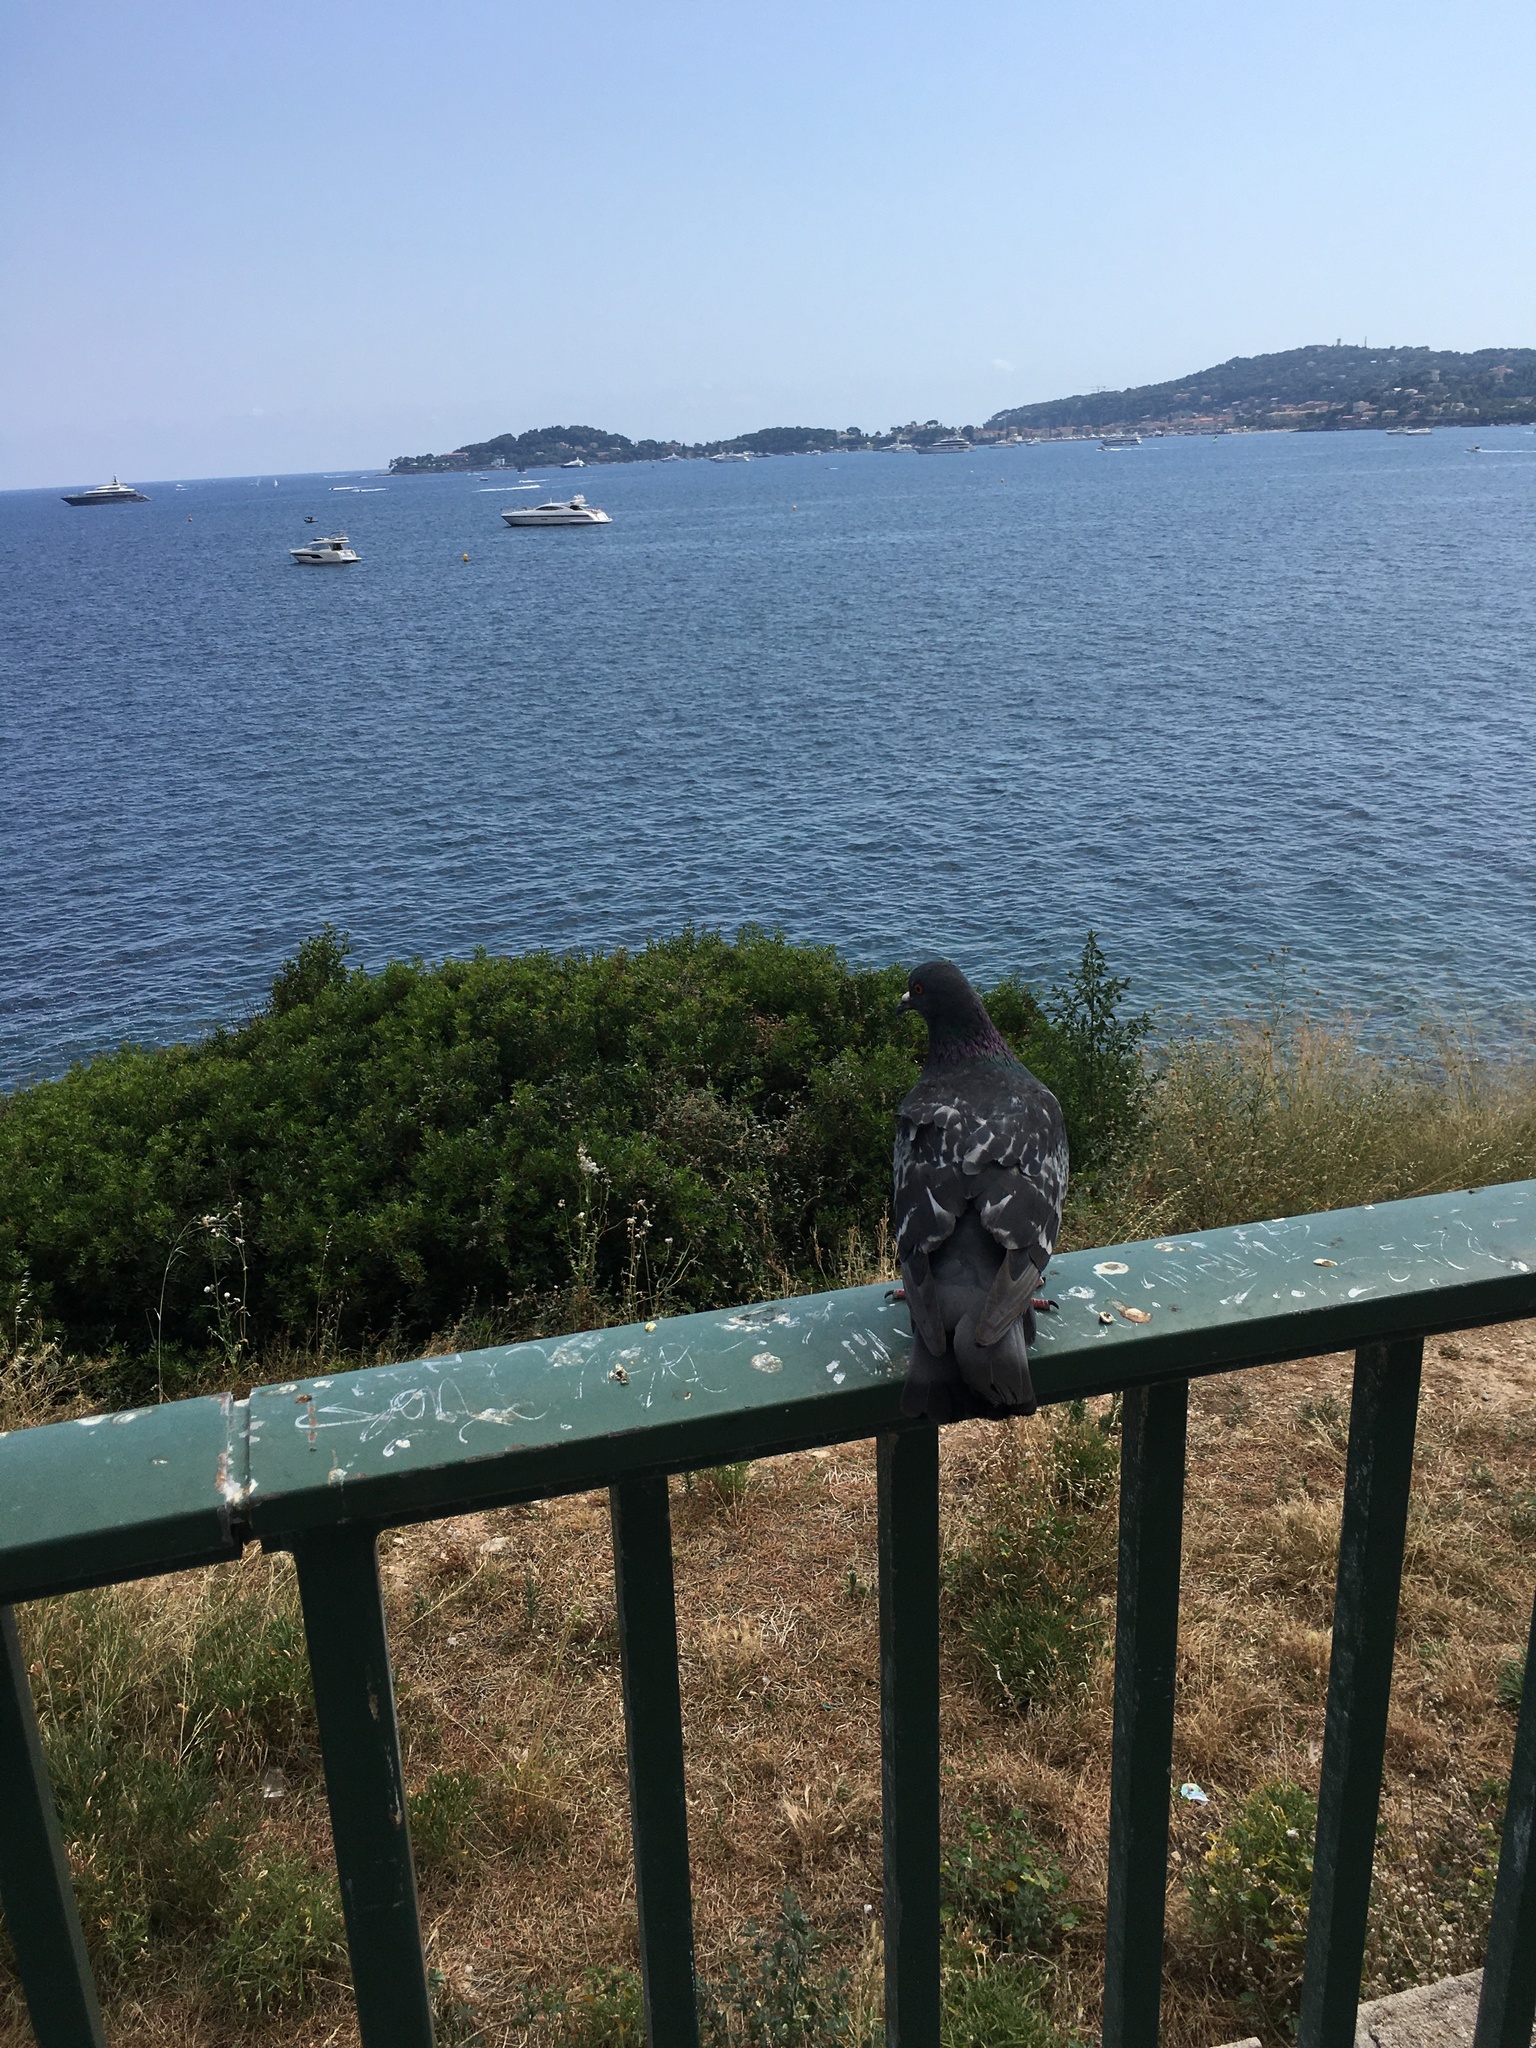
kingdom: Animalia
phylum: Chordata
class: Aves
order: Columbiformes
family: Columbidae
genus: Columba
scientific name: Columba livia
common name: Rock pigeon
